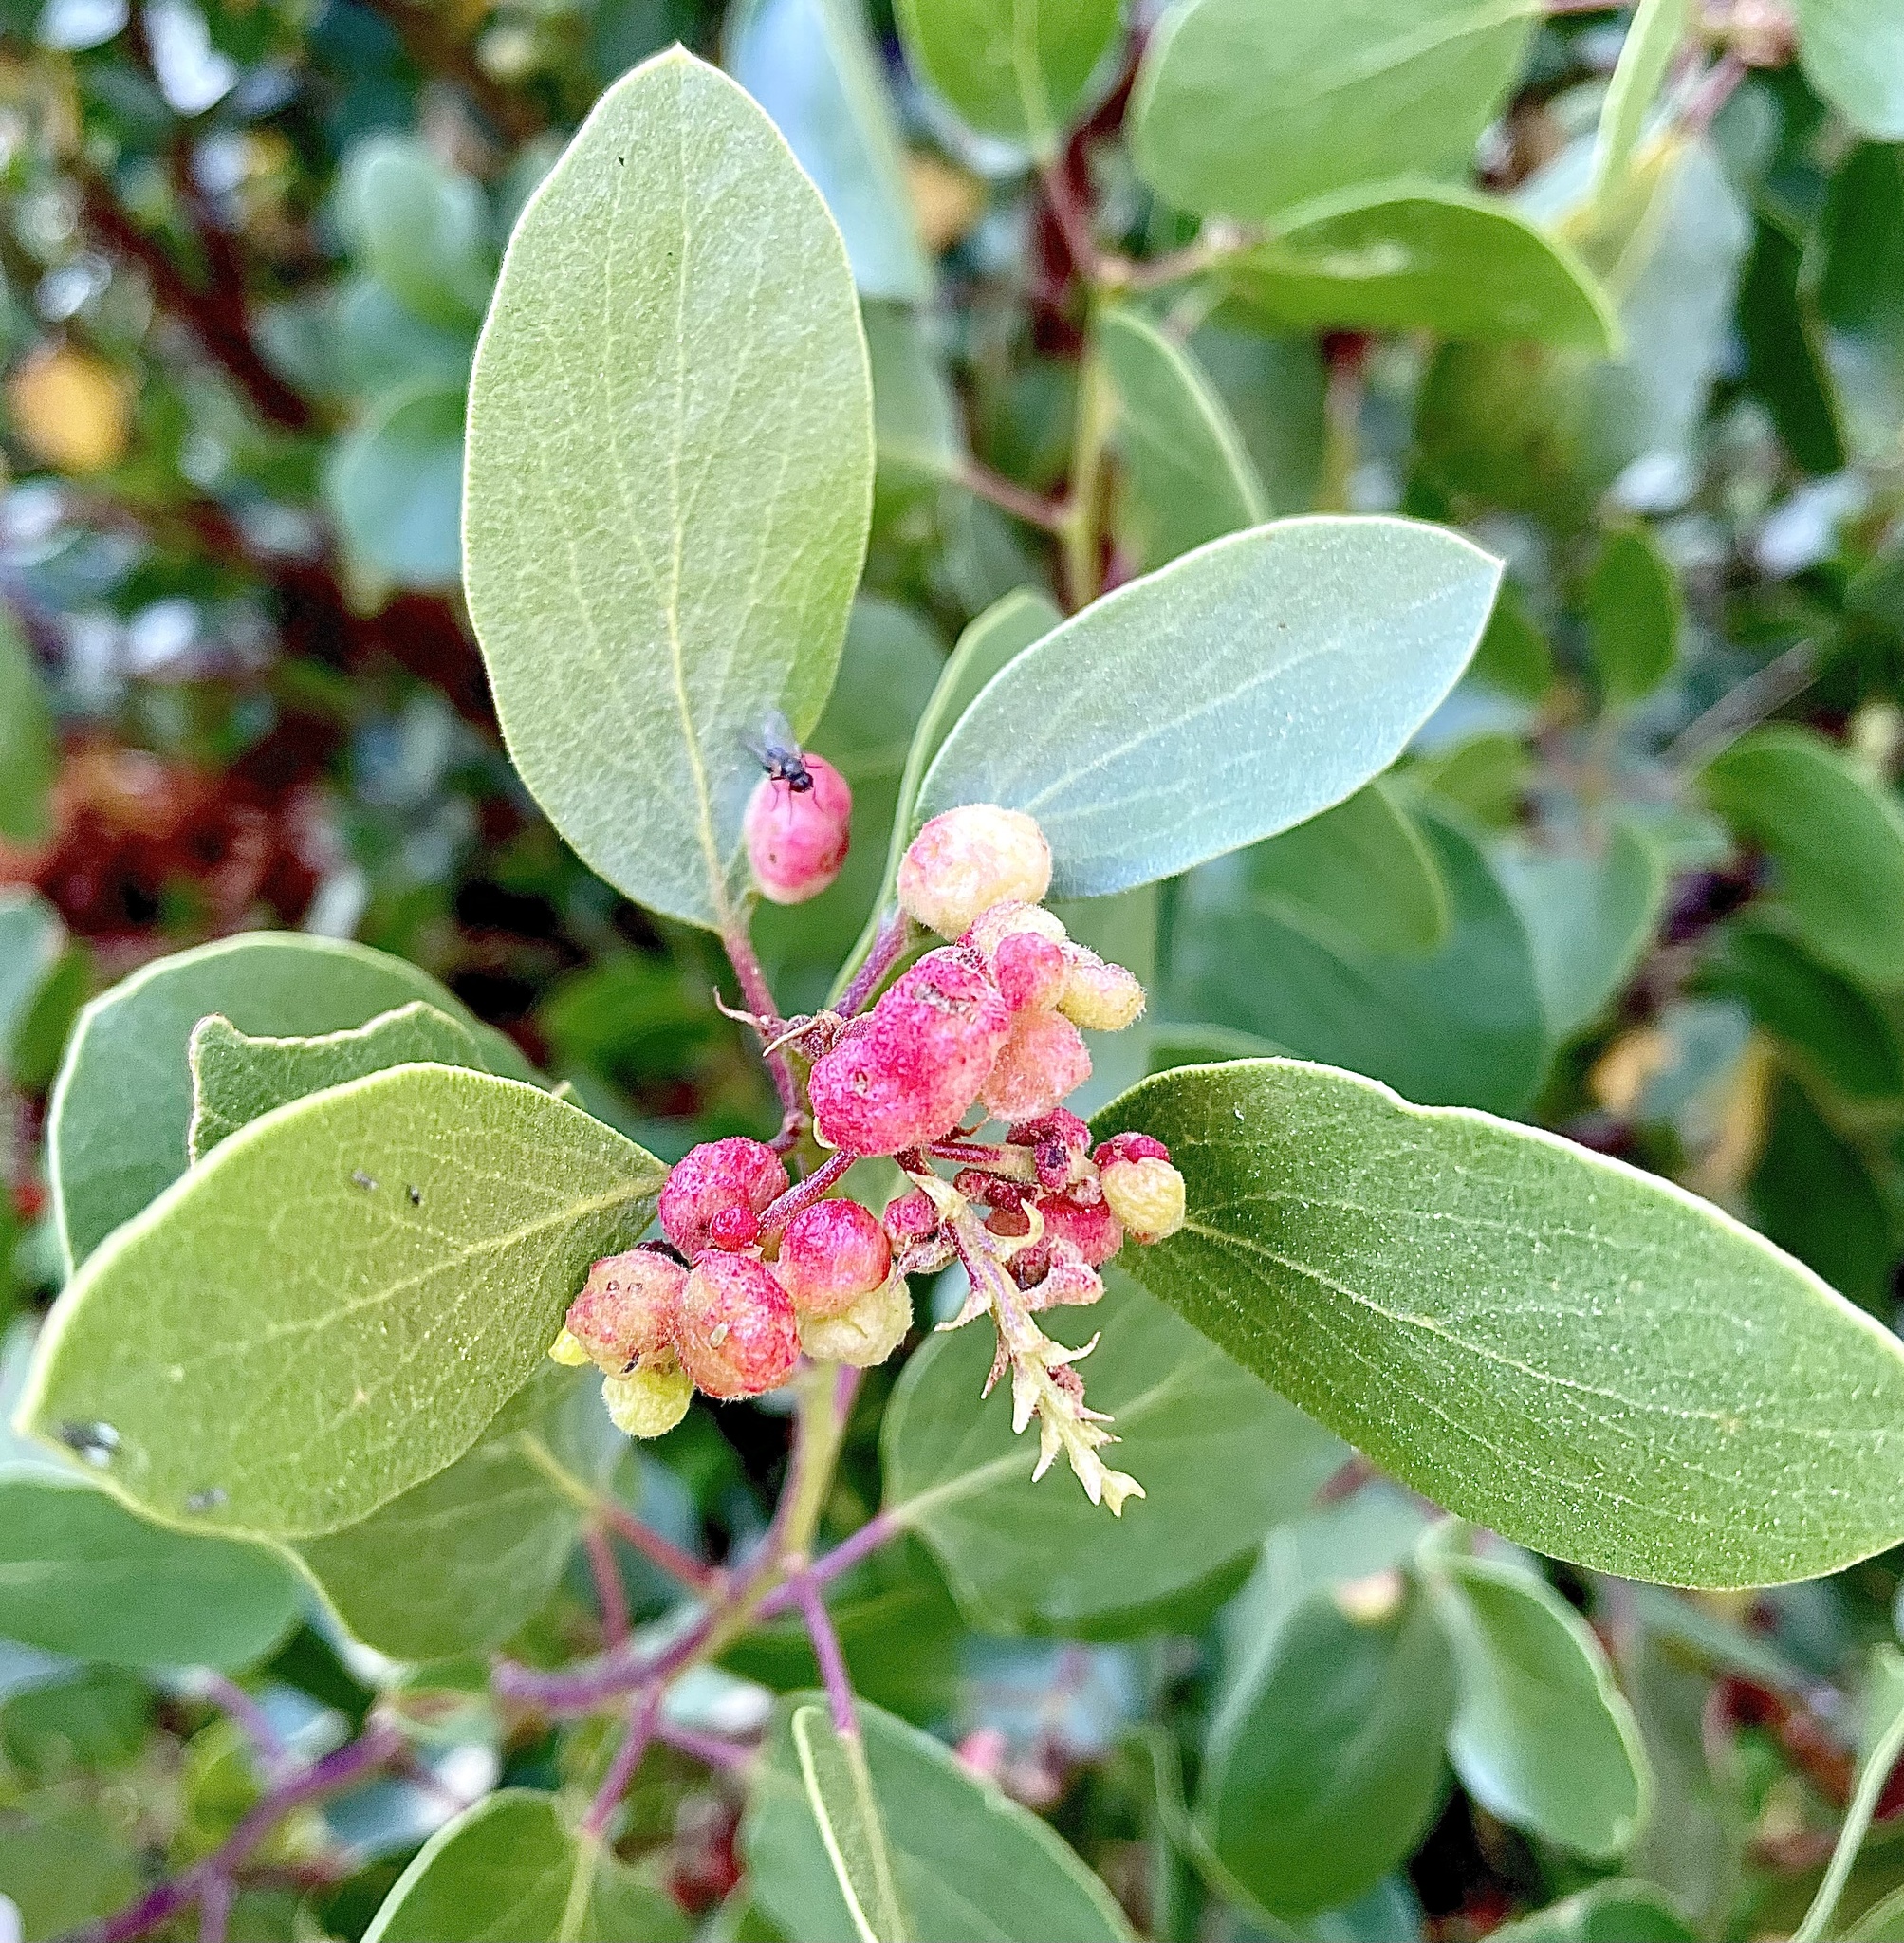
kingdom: Plantae
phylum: Tracheophyta
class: Magnoliopsida
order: Ericales
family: Ericaceae
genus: Arctostaphylos
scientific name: Arctostaphylos patula
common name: Green-leaf manzanita
